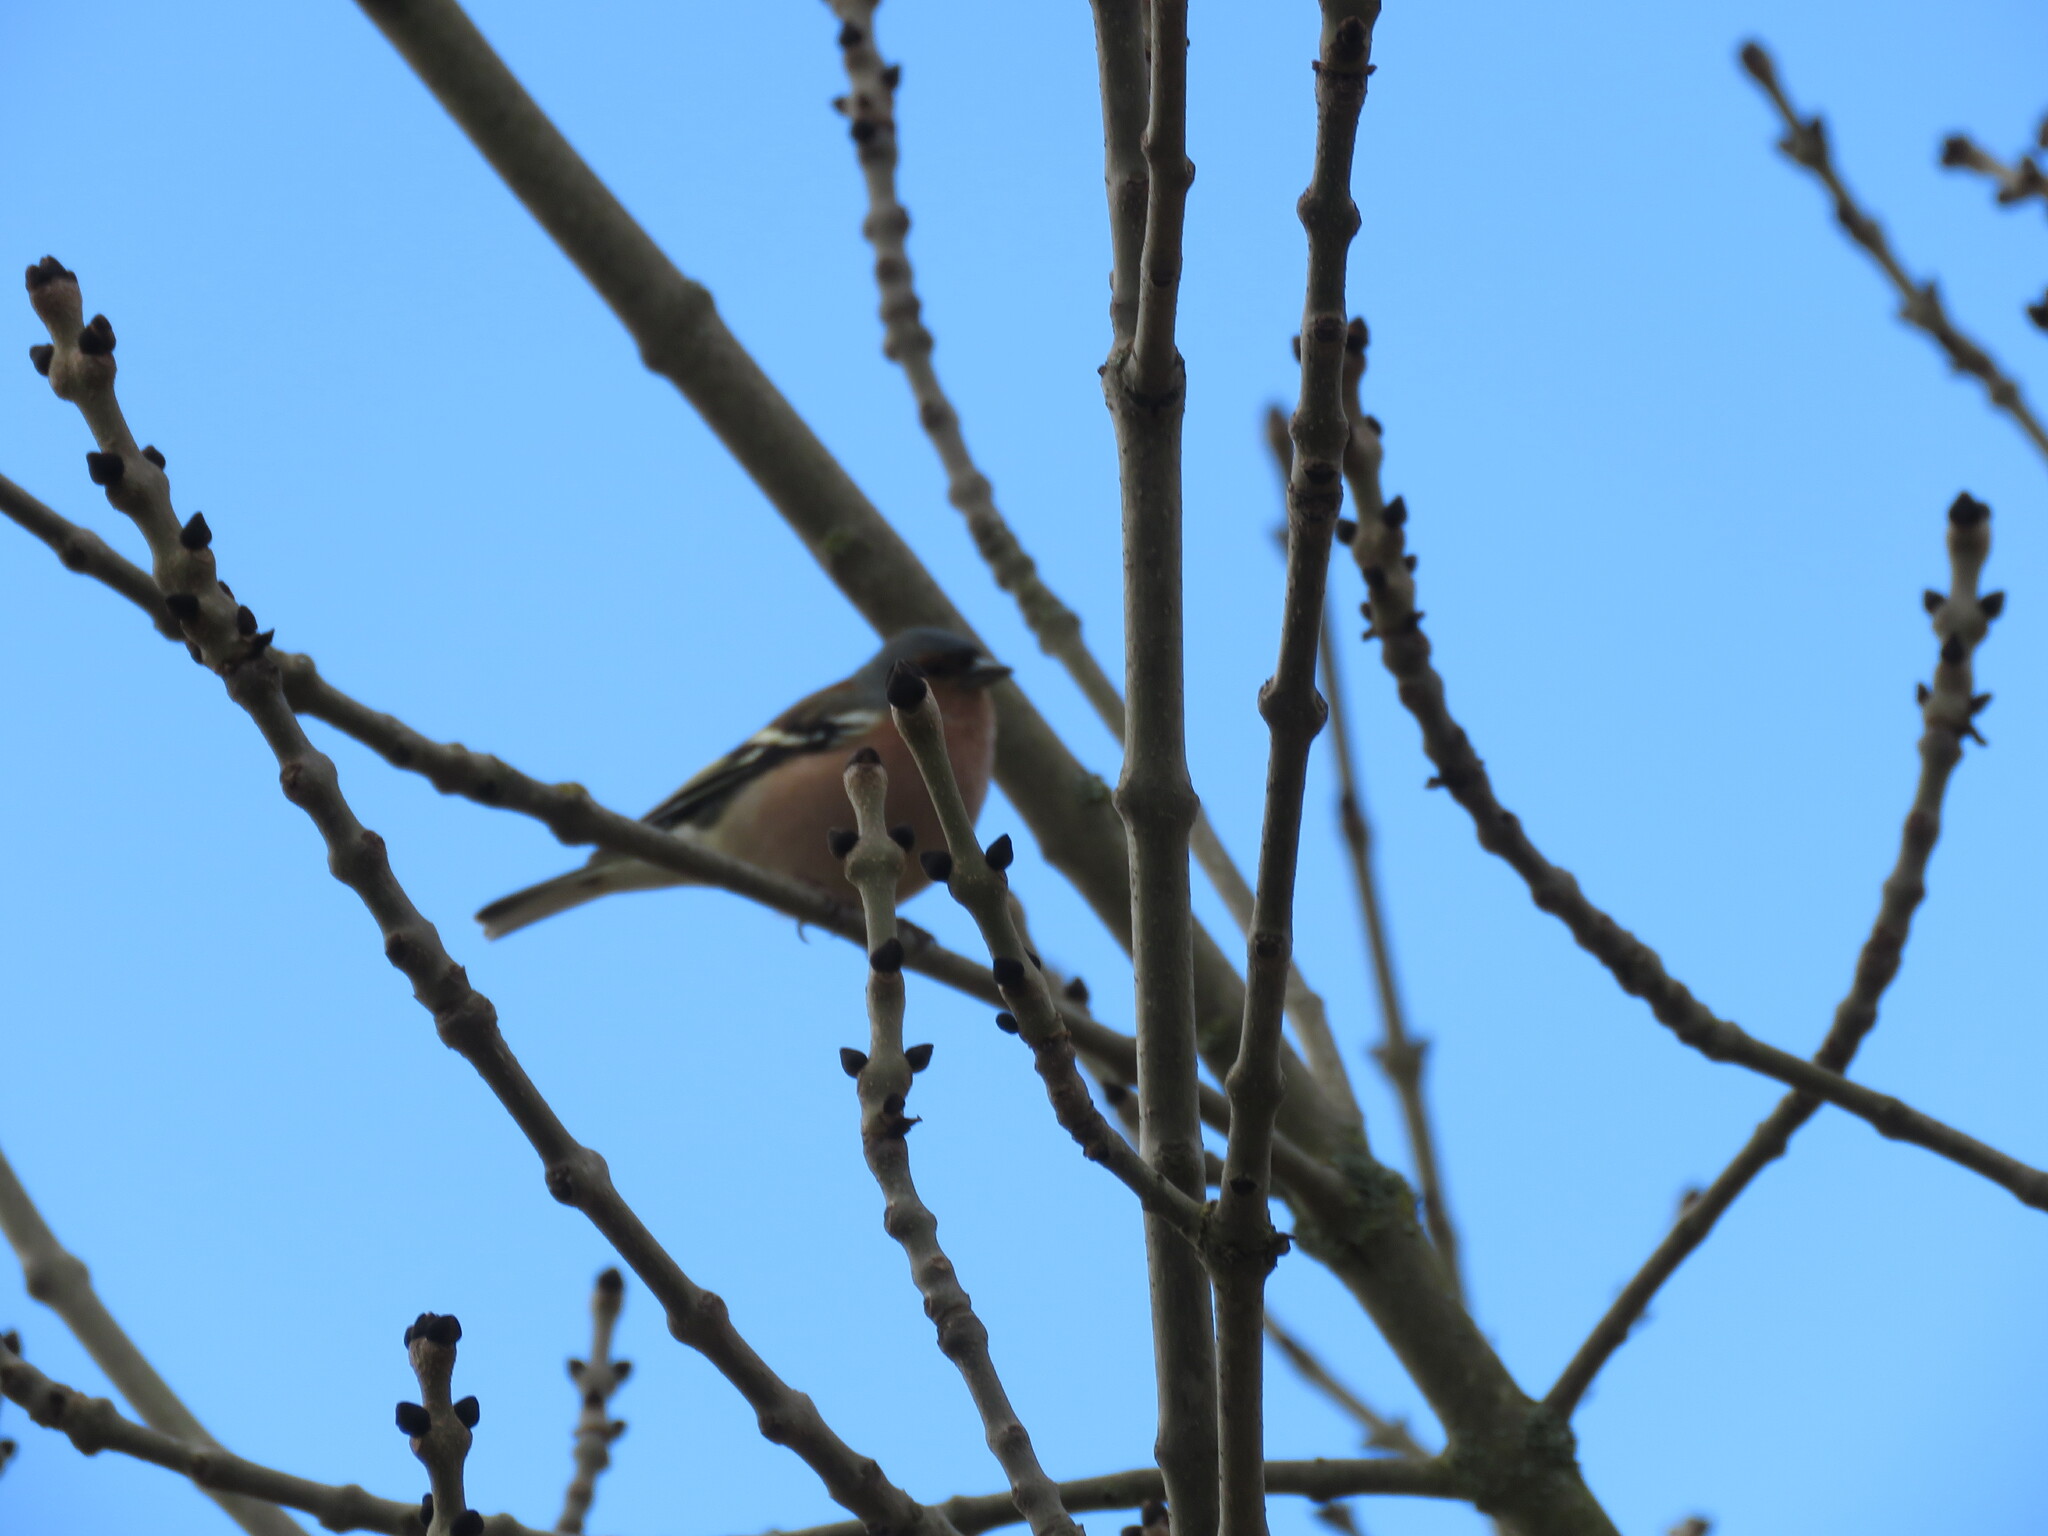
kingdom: Animalia
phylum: Chordata
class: Aves
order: Passeriformes
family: Fringillidae
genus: Fringilla
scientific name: Fringilla coelebs
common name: Common chaffinch
